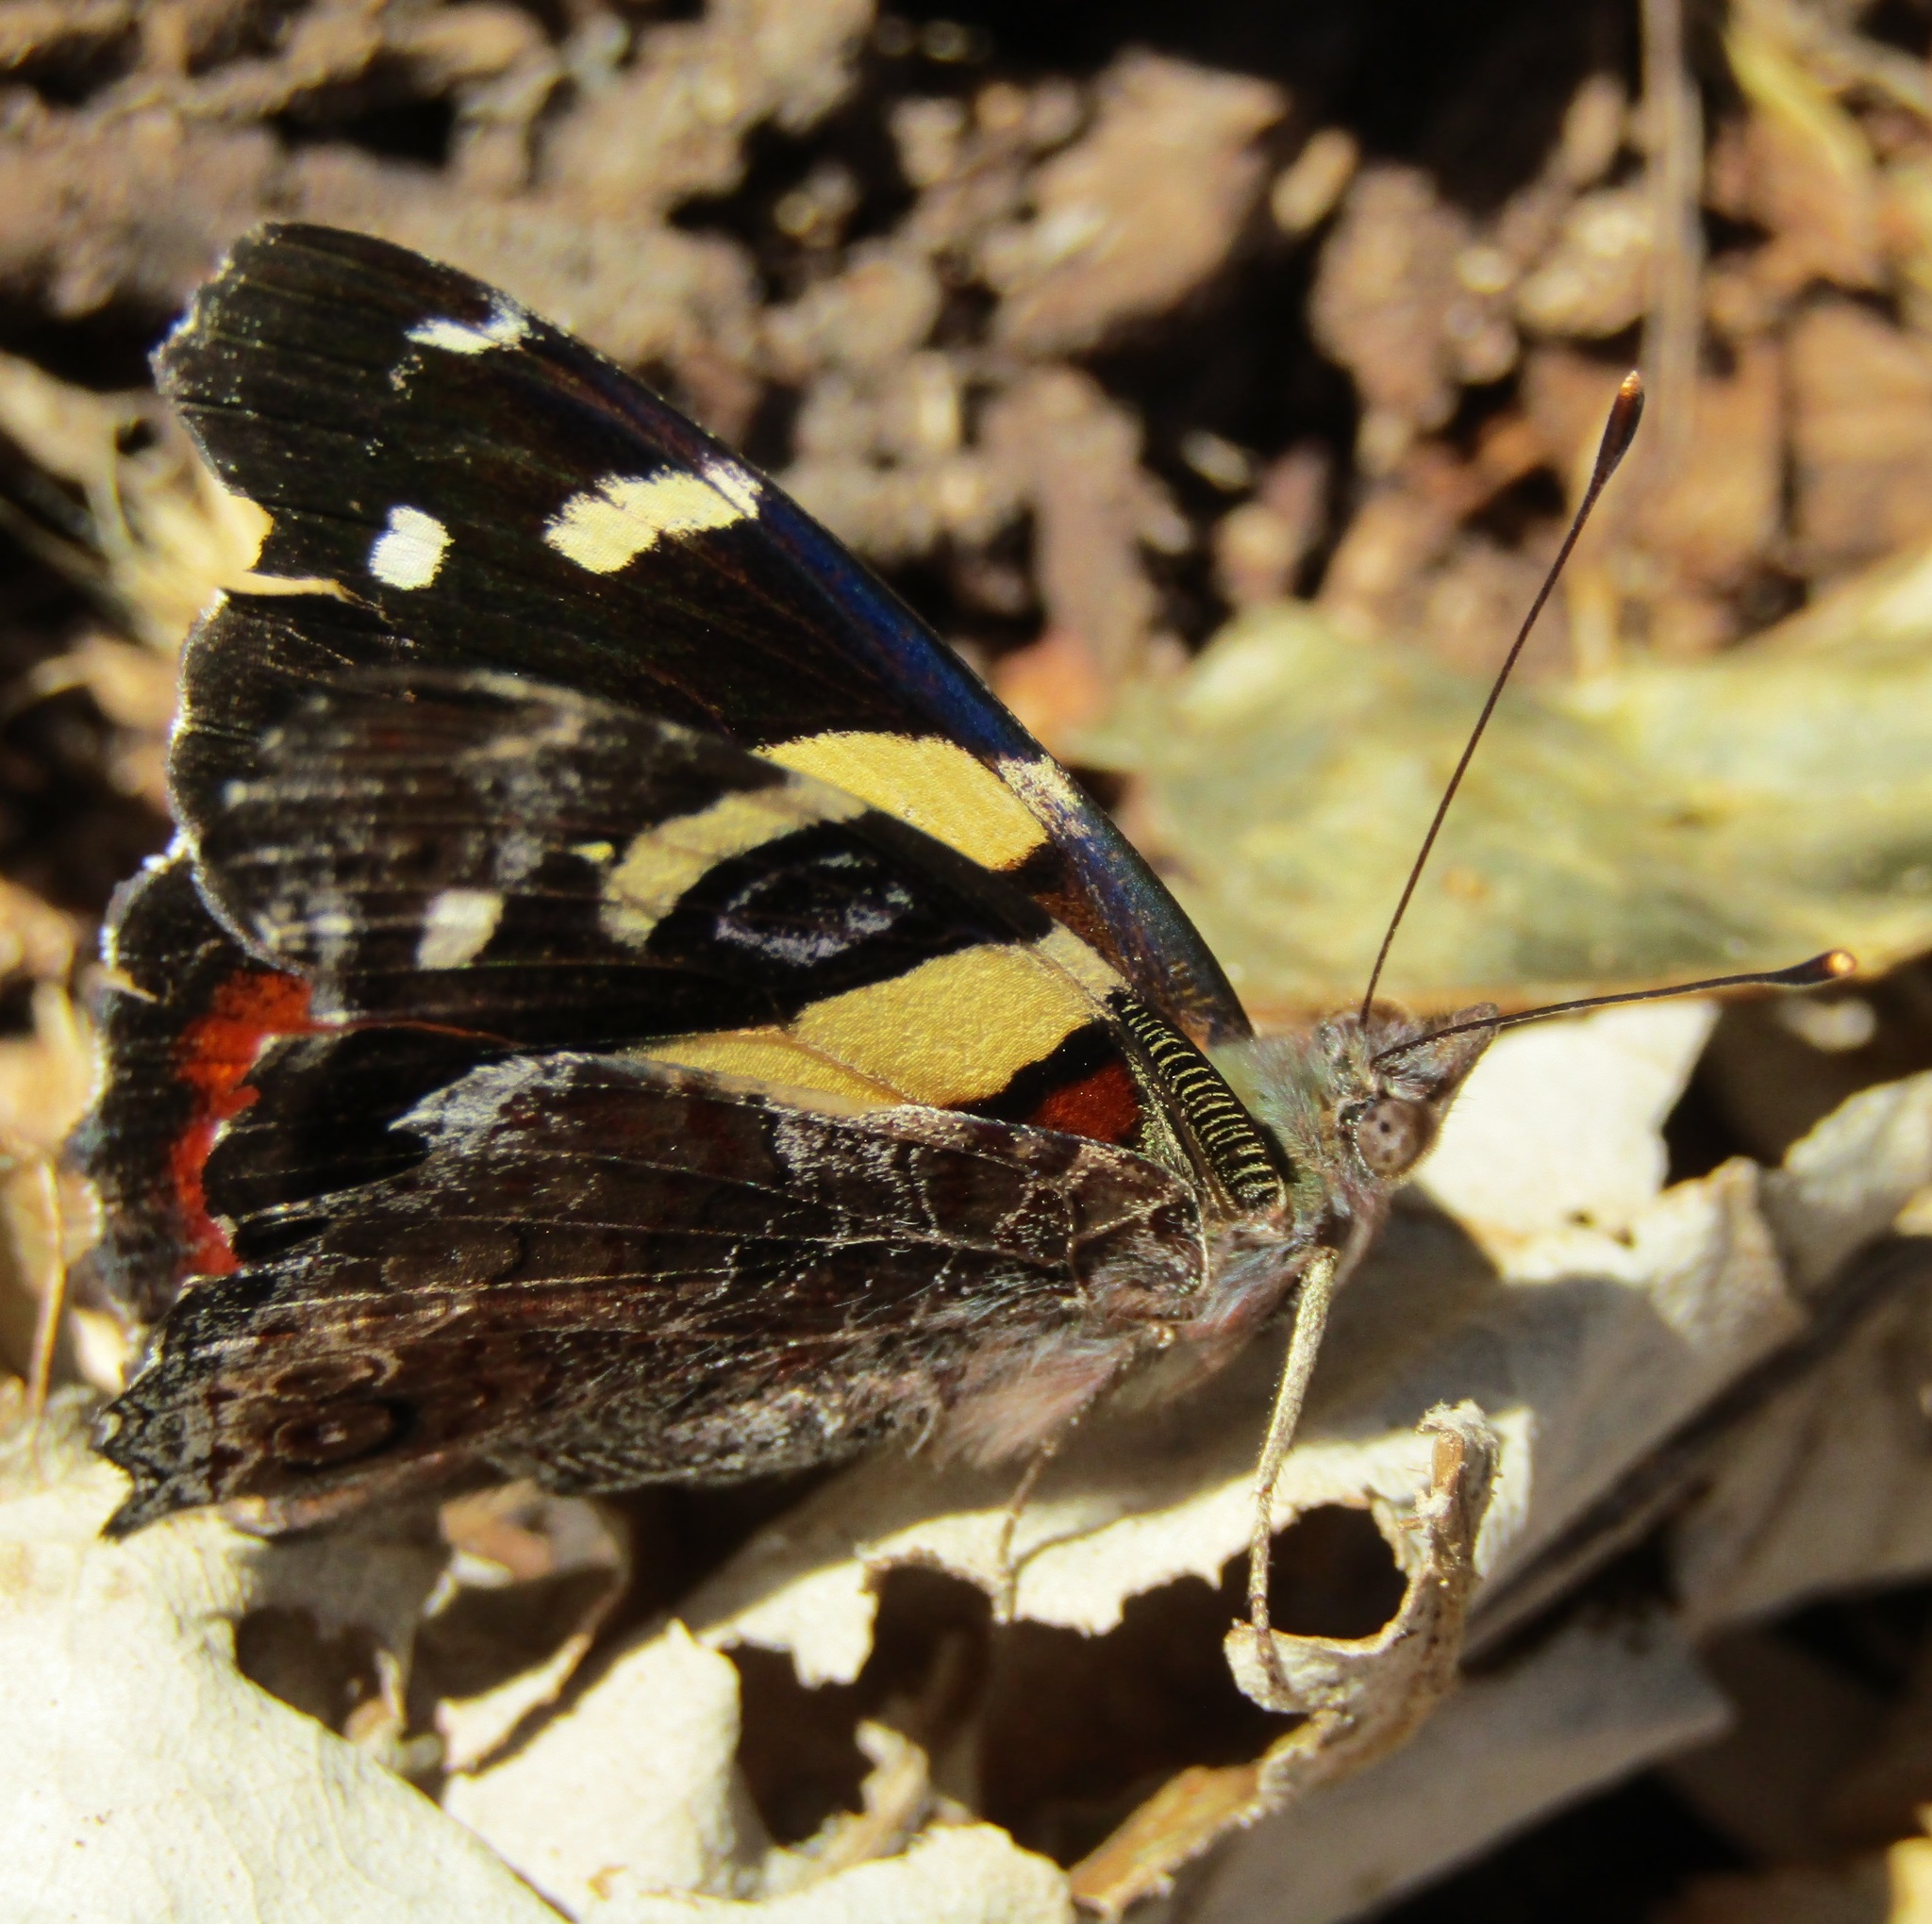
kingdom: Animalia
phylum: Arthropoda
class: Insecta
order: Lepidoptera
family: Nymphalidae
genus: Vanessa
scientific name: Vanessa itea
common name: Yellow admiral
